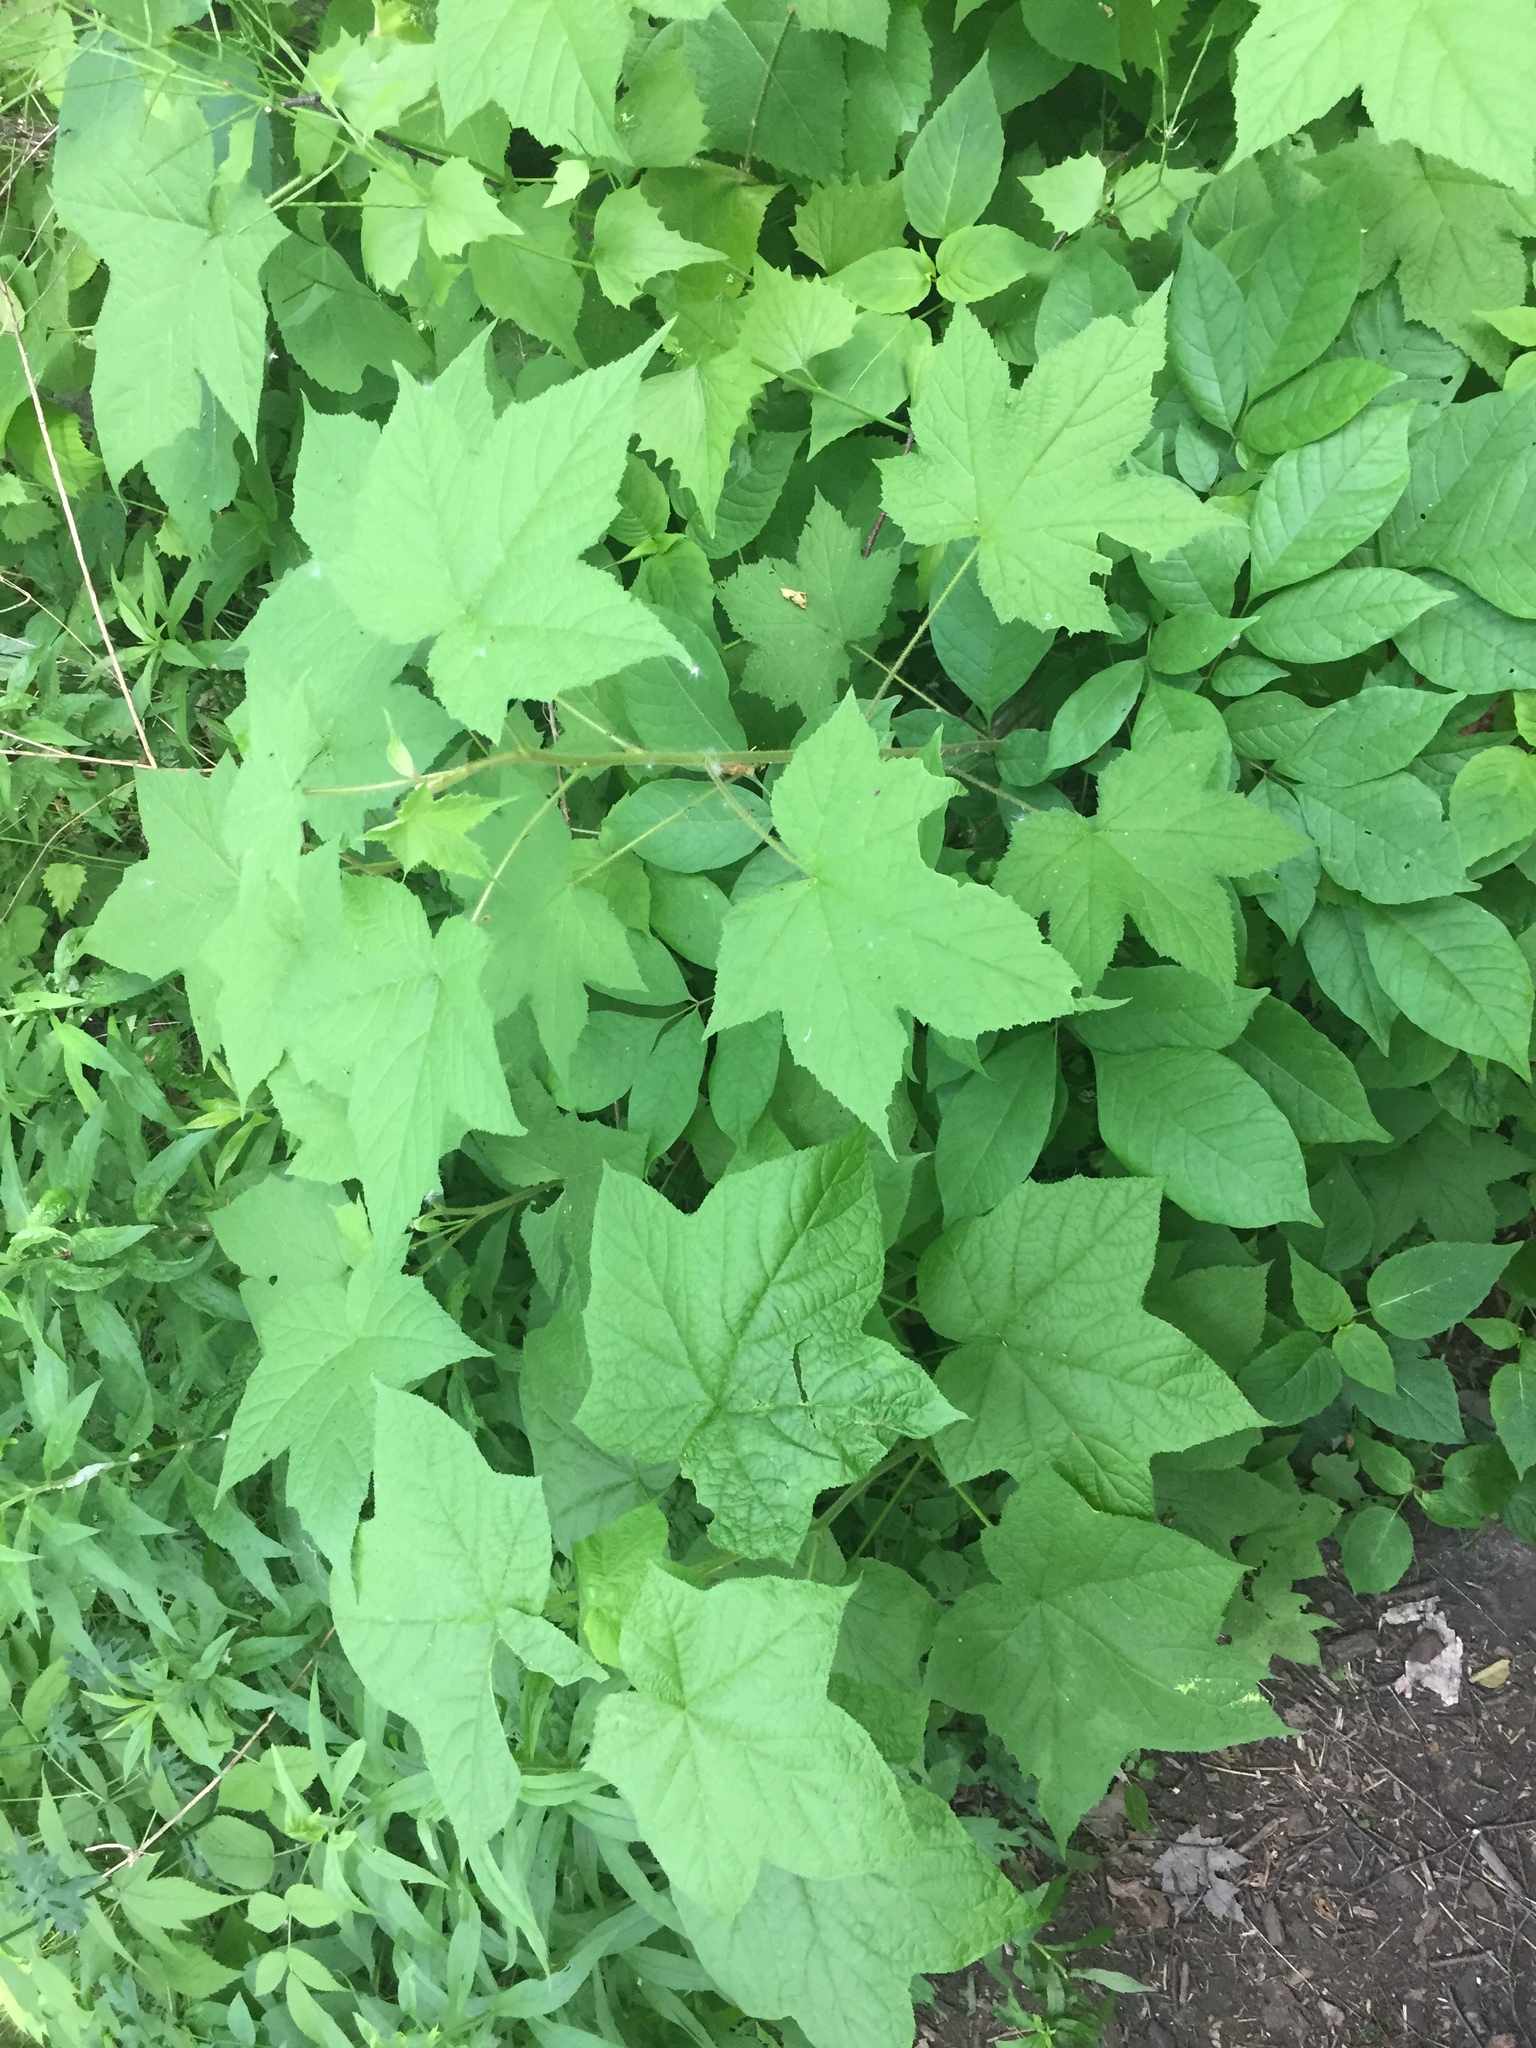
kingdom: Plantae
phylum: Tracheophyta
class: Magnoliopsida
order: Rosales
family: Rosaceae
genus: Rubus
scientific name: Rubus odoratus
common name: Purple-flowered raspberry
